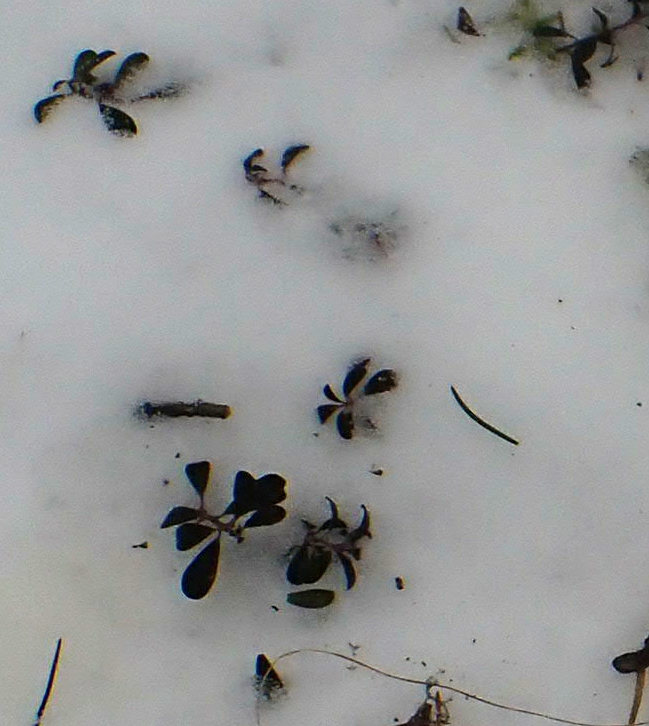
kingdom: Plantae
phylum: Tracheophyta
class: Magnoliopsida
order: Ericales
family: Ericaceae
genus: Arctostaphylos
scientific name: Arctostaphylos uva-ursi
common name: Bearberry
